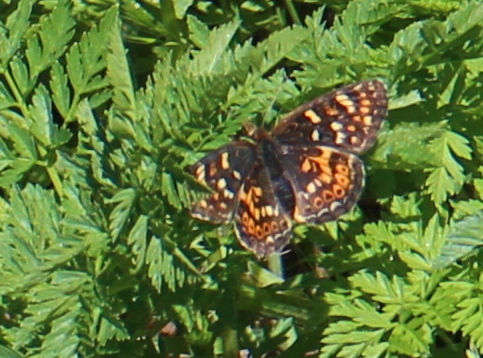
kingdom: Animalia
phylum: Arthropoda
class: Insecta
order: Lepidoptera
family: Nymphalidae
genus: Phyciodes
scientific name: Phyciodes tharos
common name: Pearl crescent
